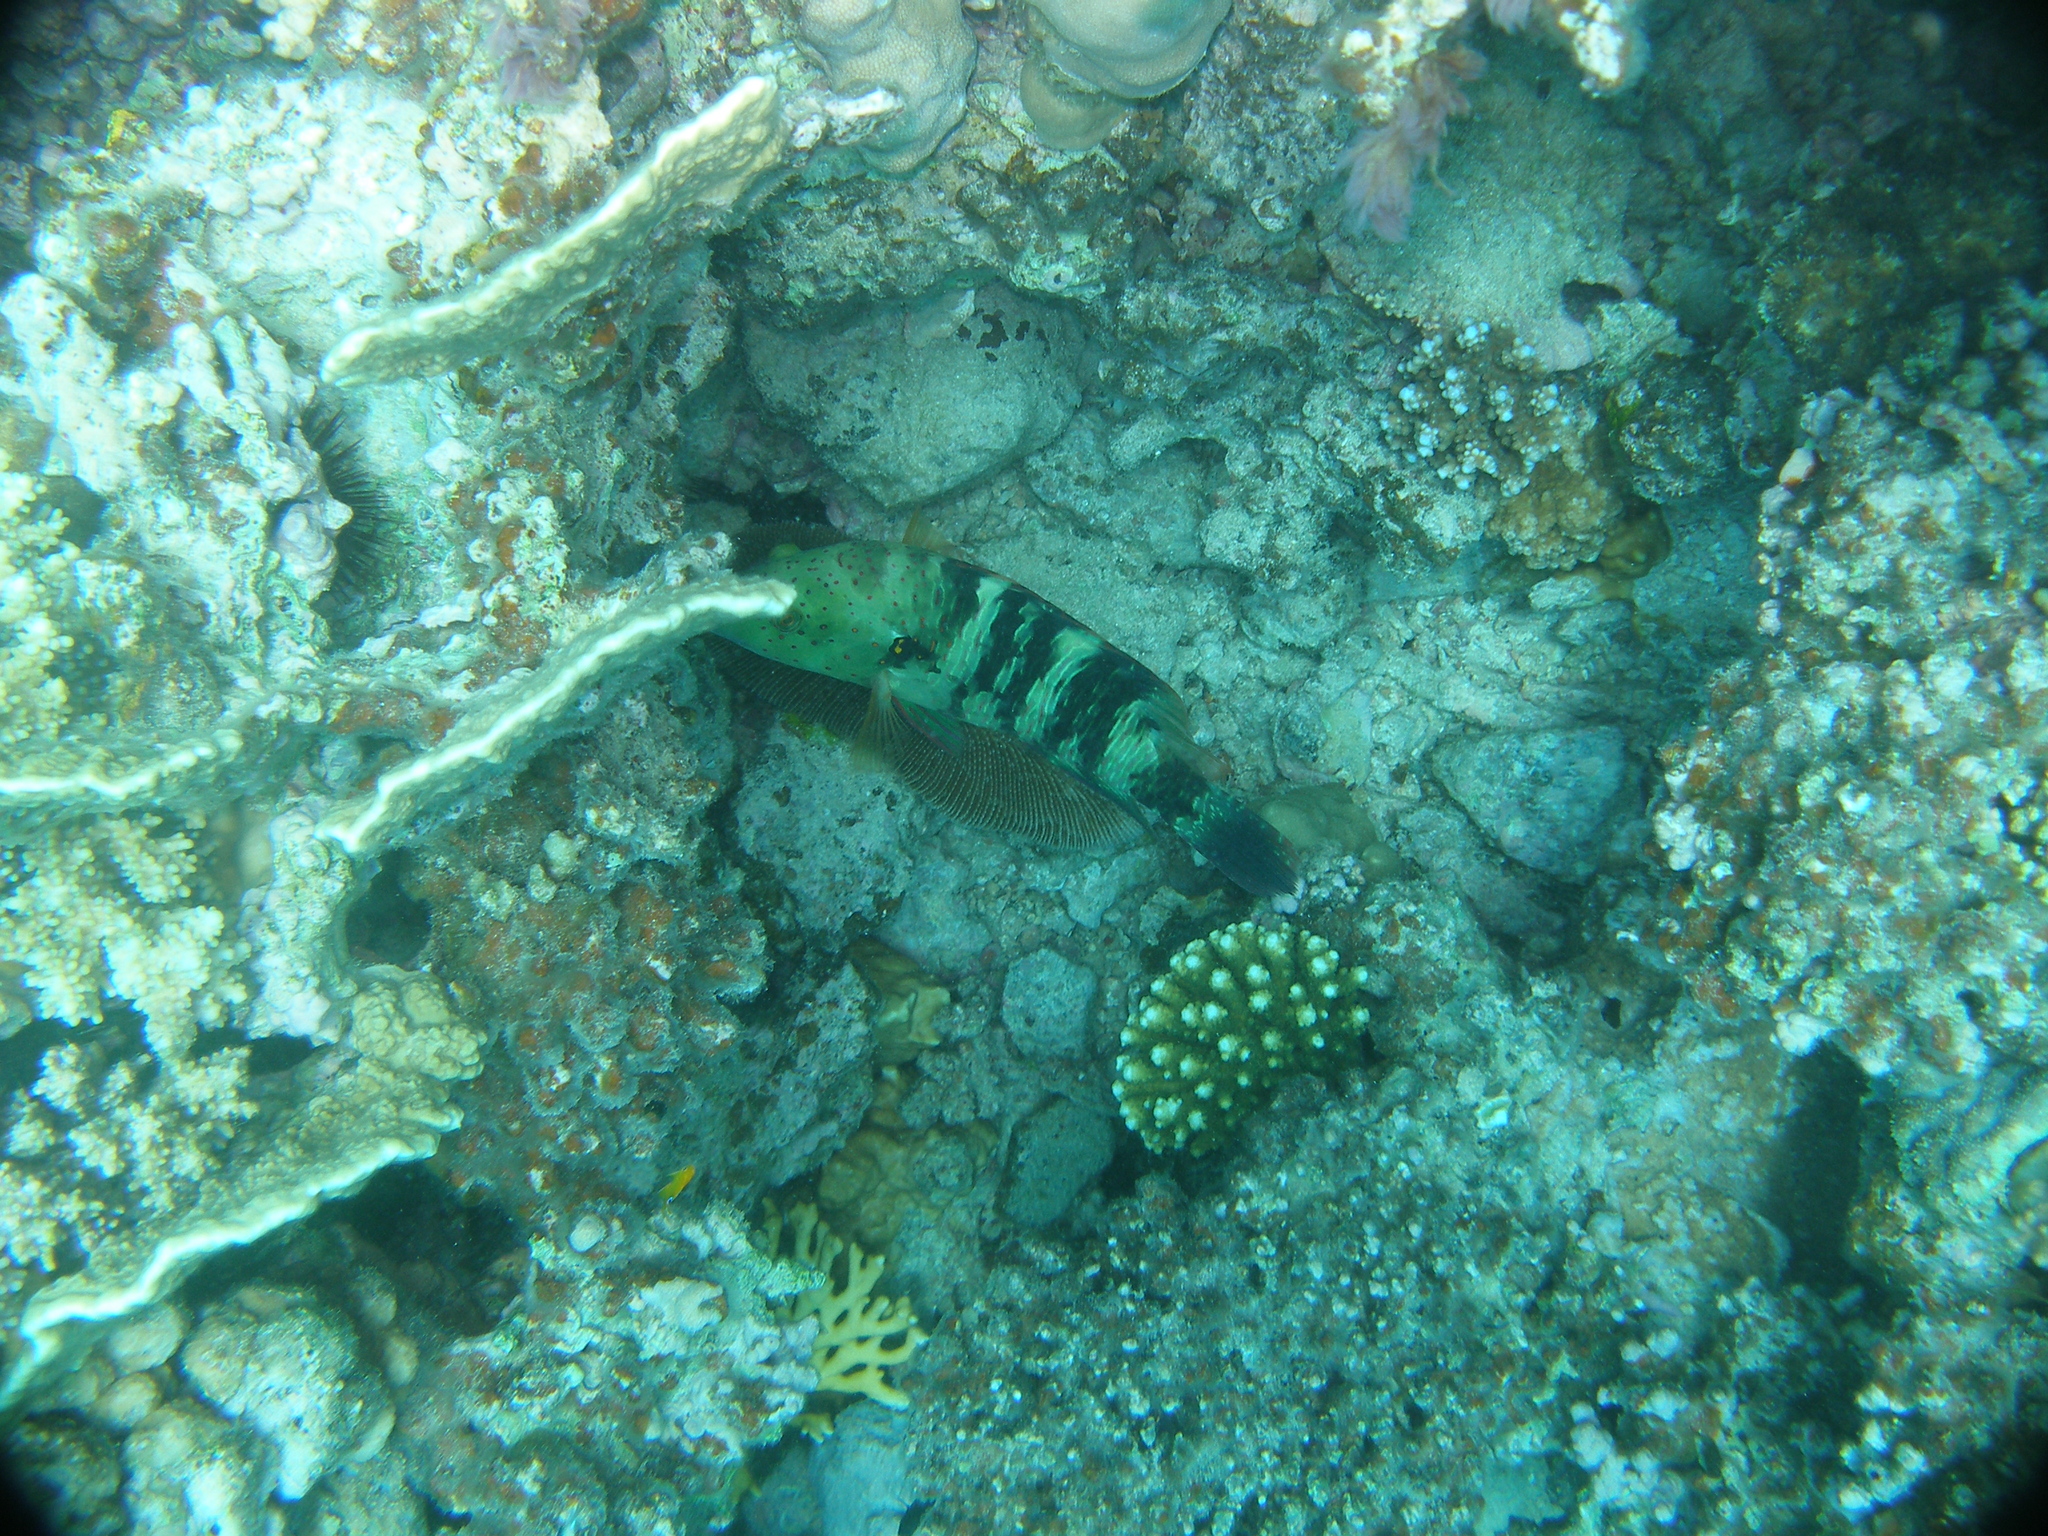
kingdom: Animalia
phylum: Chordata
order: Perciformes
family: Labridae
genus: Cheilinus
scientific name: Cheilinus lunulatus
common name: Broomtail wrasse
